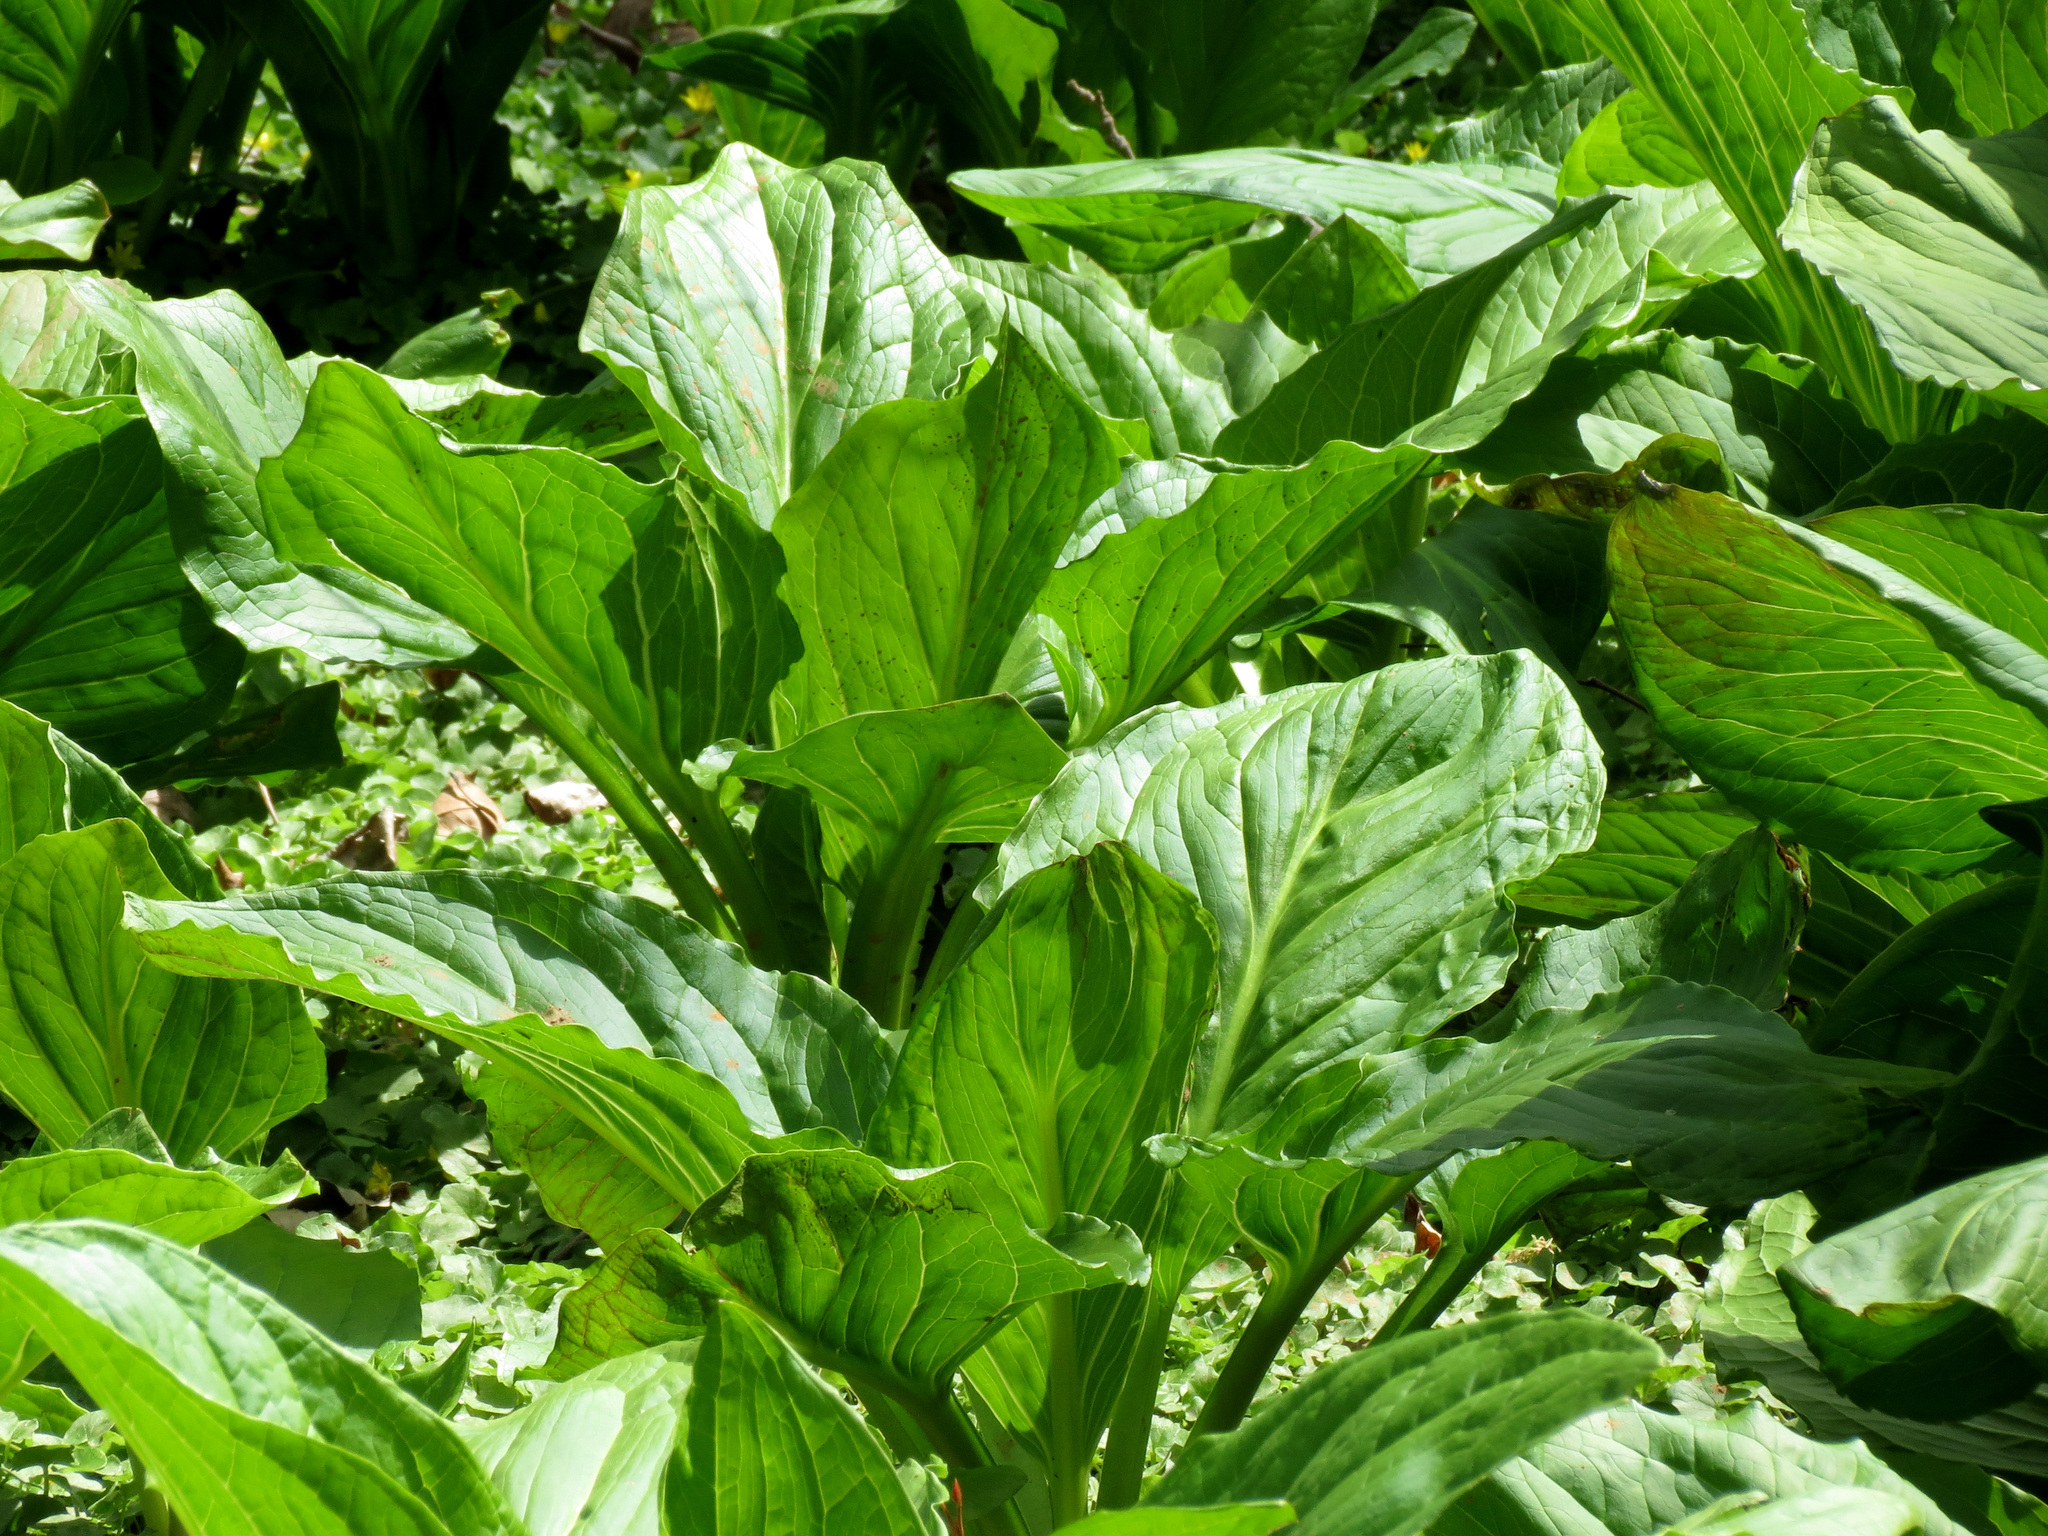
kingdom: Plantae
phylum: Tracheophyta
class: Liliopsida
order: Alismatales
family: Araceae
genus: Symplocarpus
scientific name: Symplocarpus foetidus
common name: Eastern skunk cabbage
